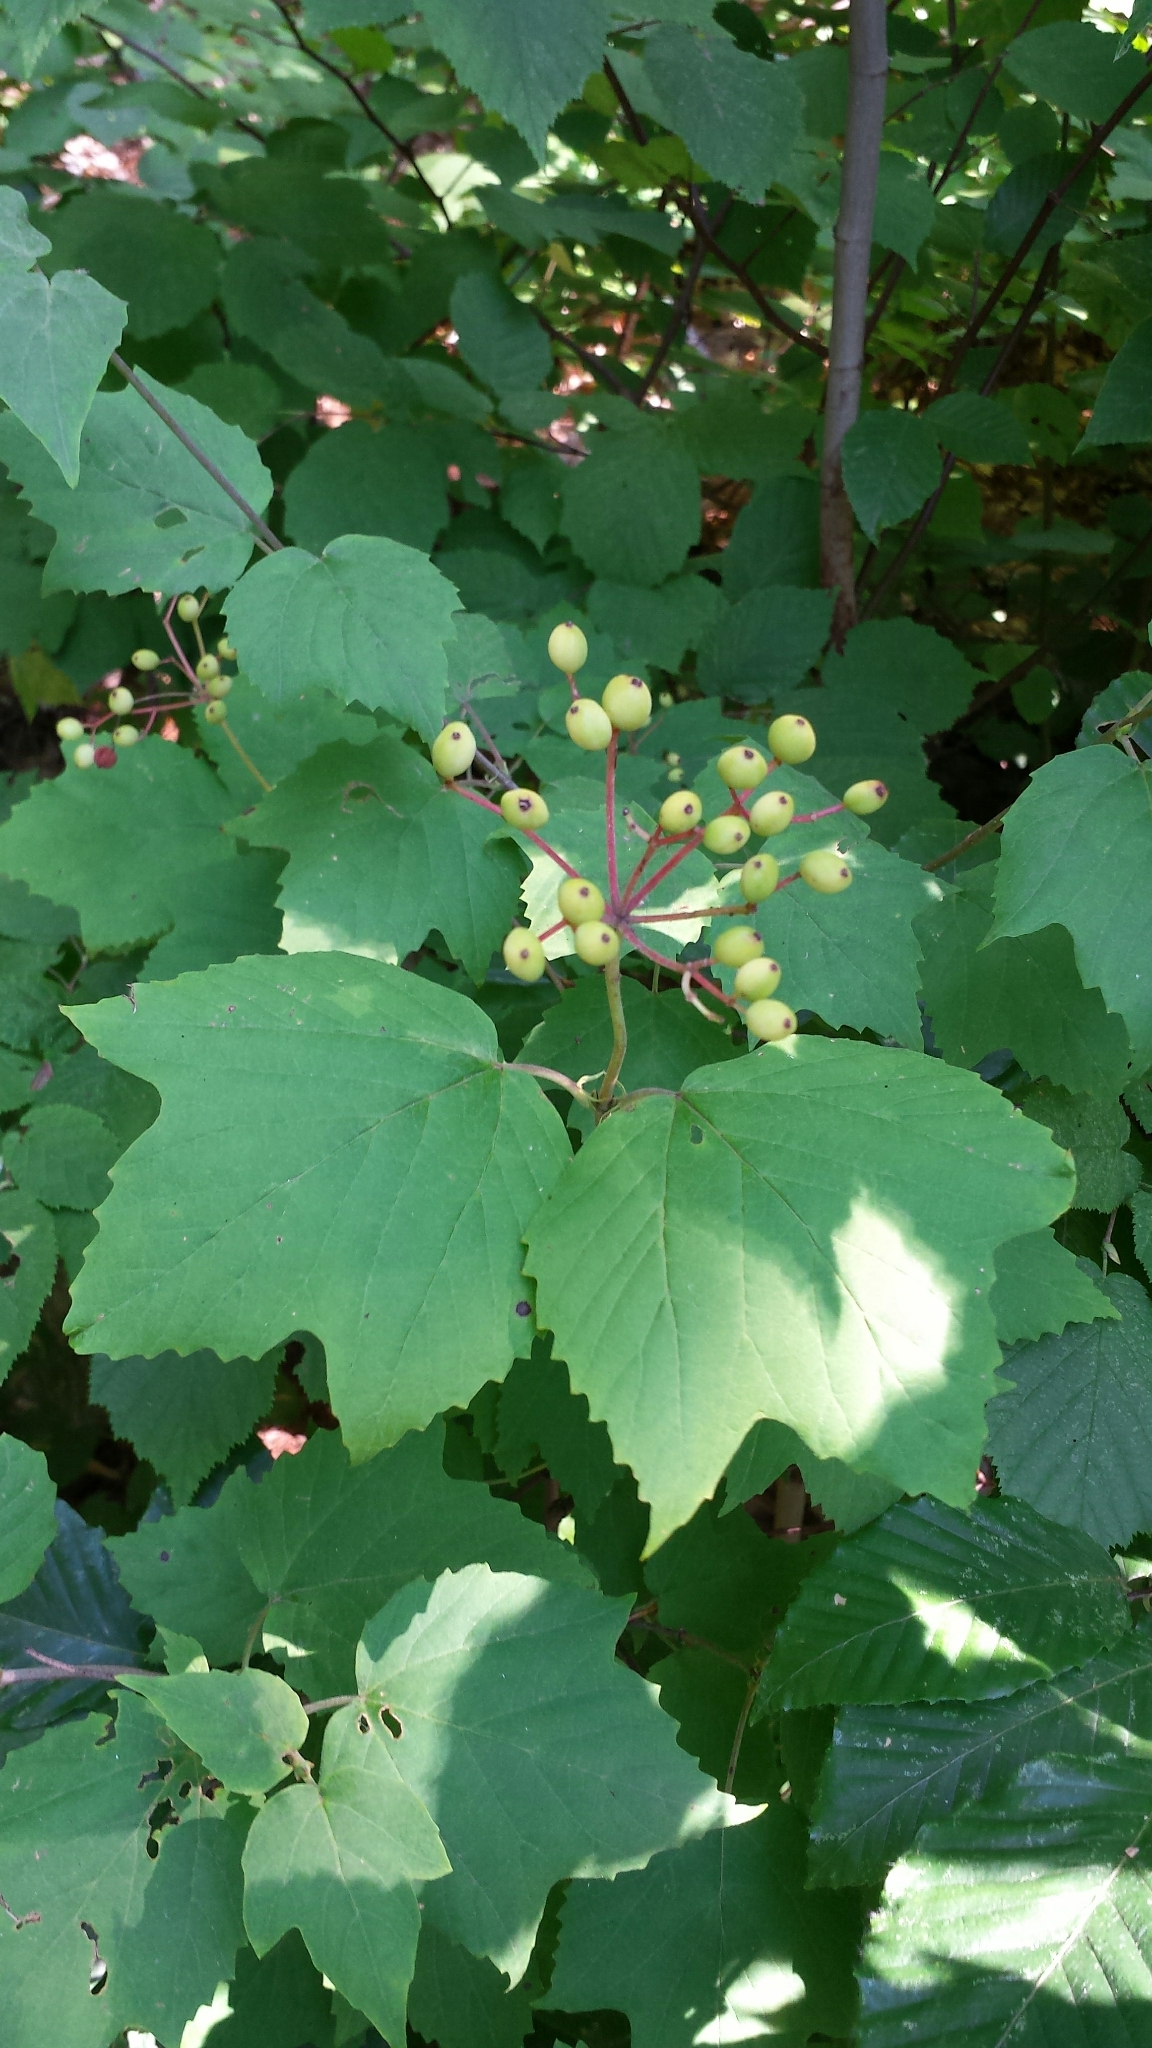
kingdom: Plantae
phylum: Tracheophyta
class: Magnoliopsida
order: Dipsacales
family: Viburnaceae
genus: Viburnum
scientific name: Viburnum acerifolium
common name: Dockmackie
